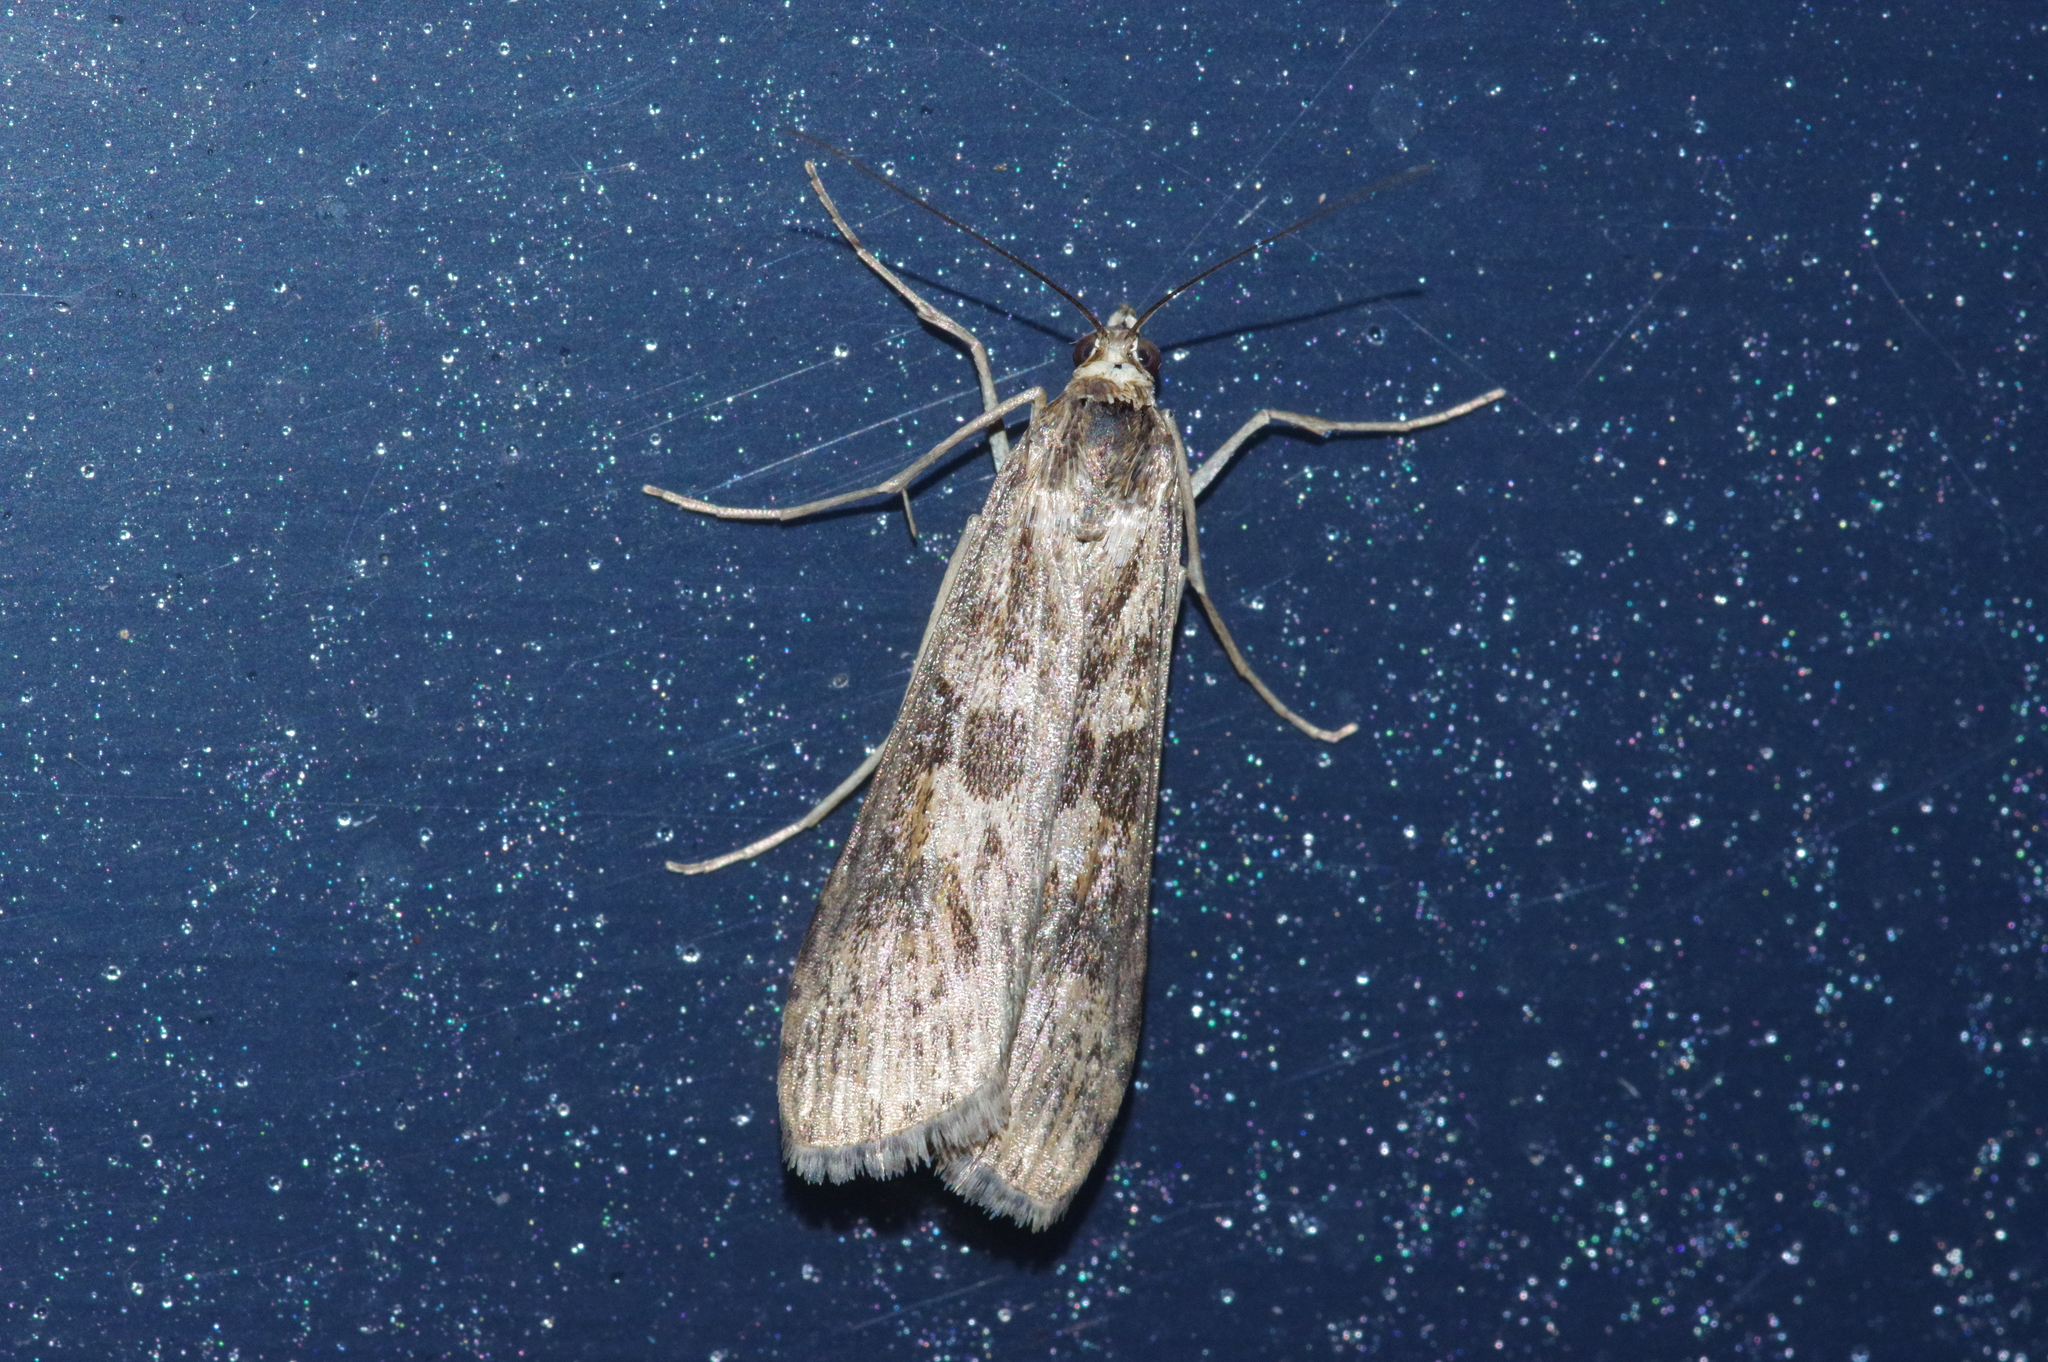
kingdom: Animalia
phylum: Arthropoda
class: Insecta
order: Lepidoptera
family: Crambidae
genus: Nomophila
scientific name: Nomophila noctuella
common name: Rush veneer
